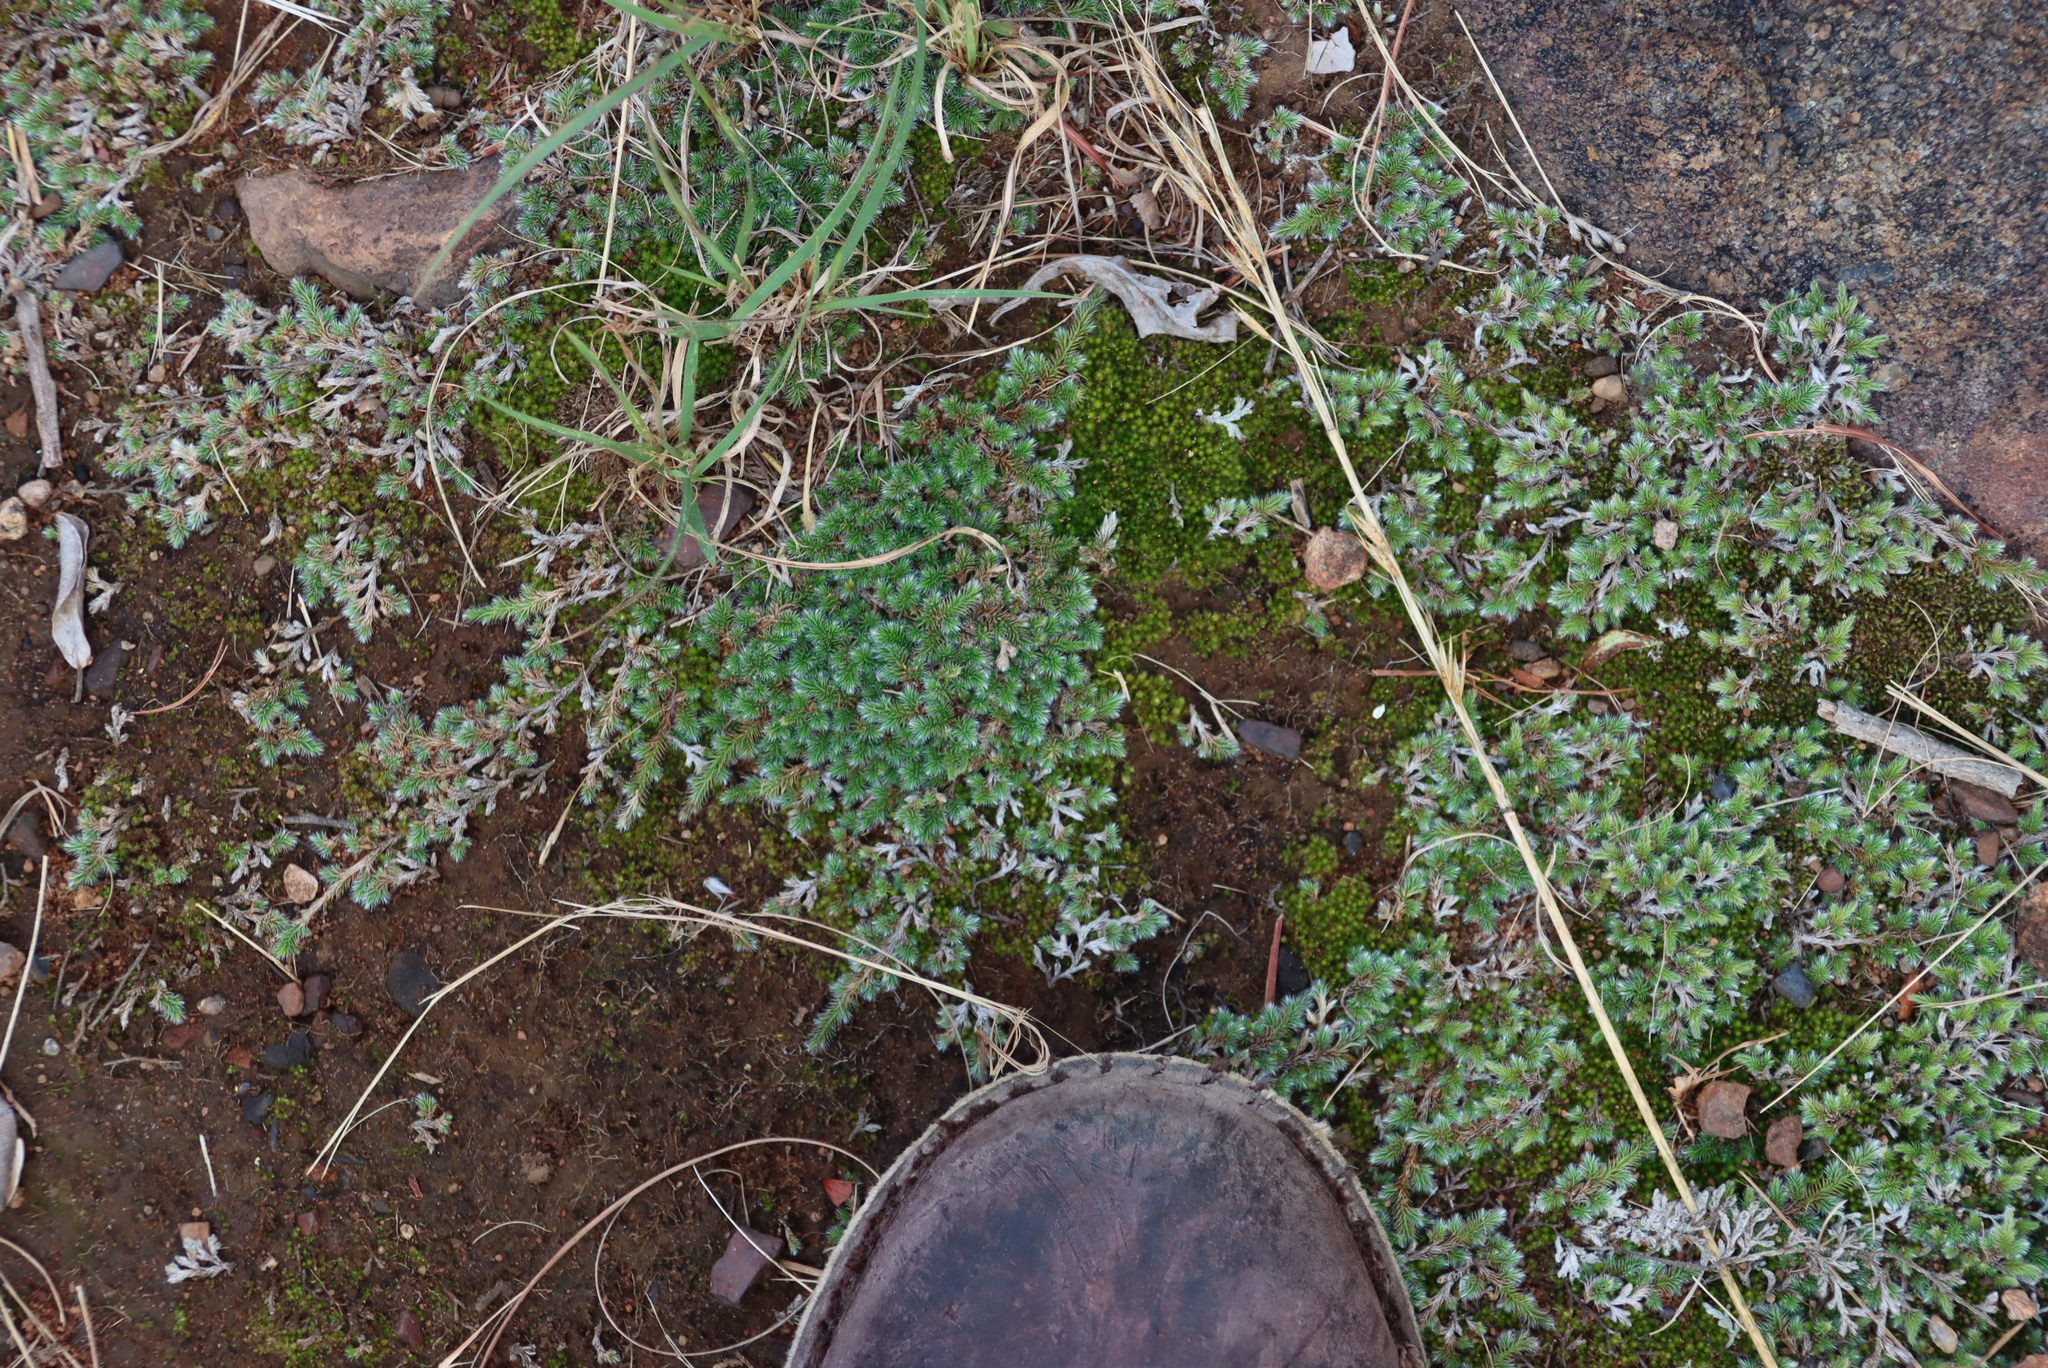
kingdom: Plantae
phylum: Bryophyta
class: Bryopsida
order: Dicranales
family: Leucobryaceae
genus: Campylopus
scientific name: Campylopus pilifer
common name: Campylopus moss
